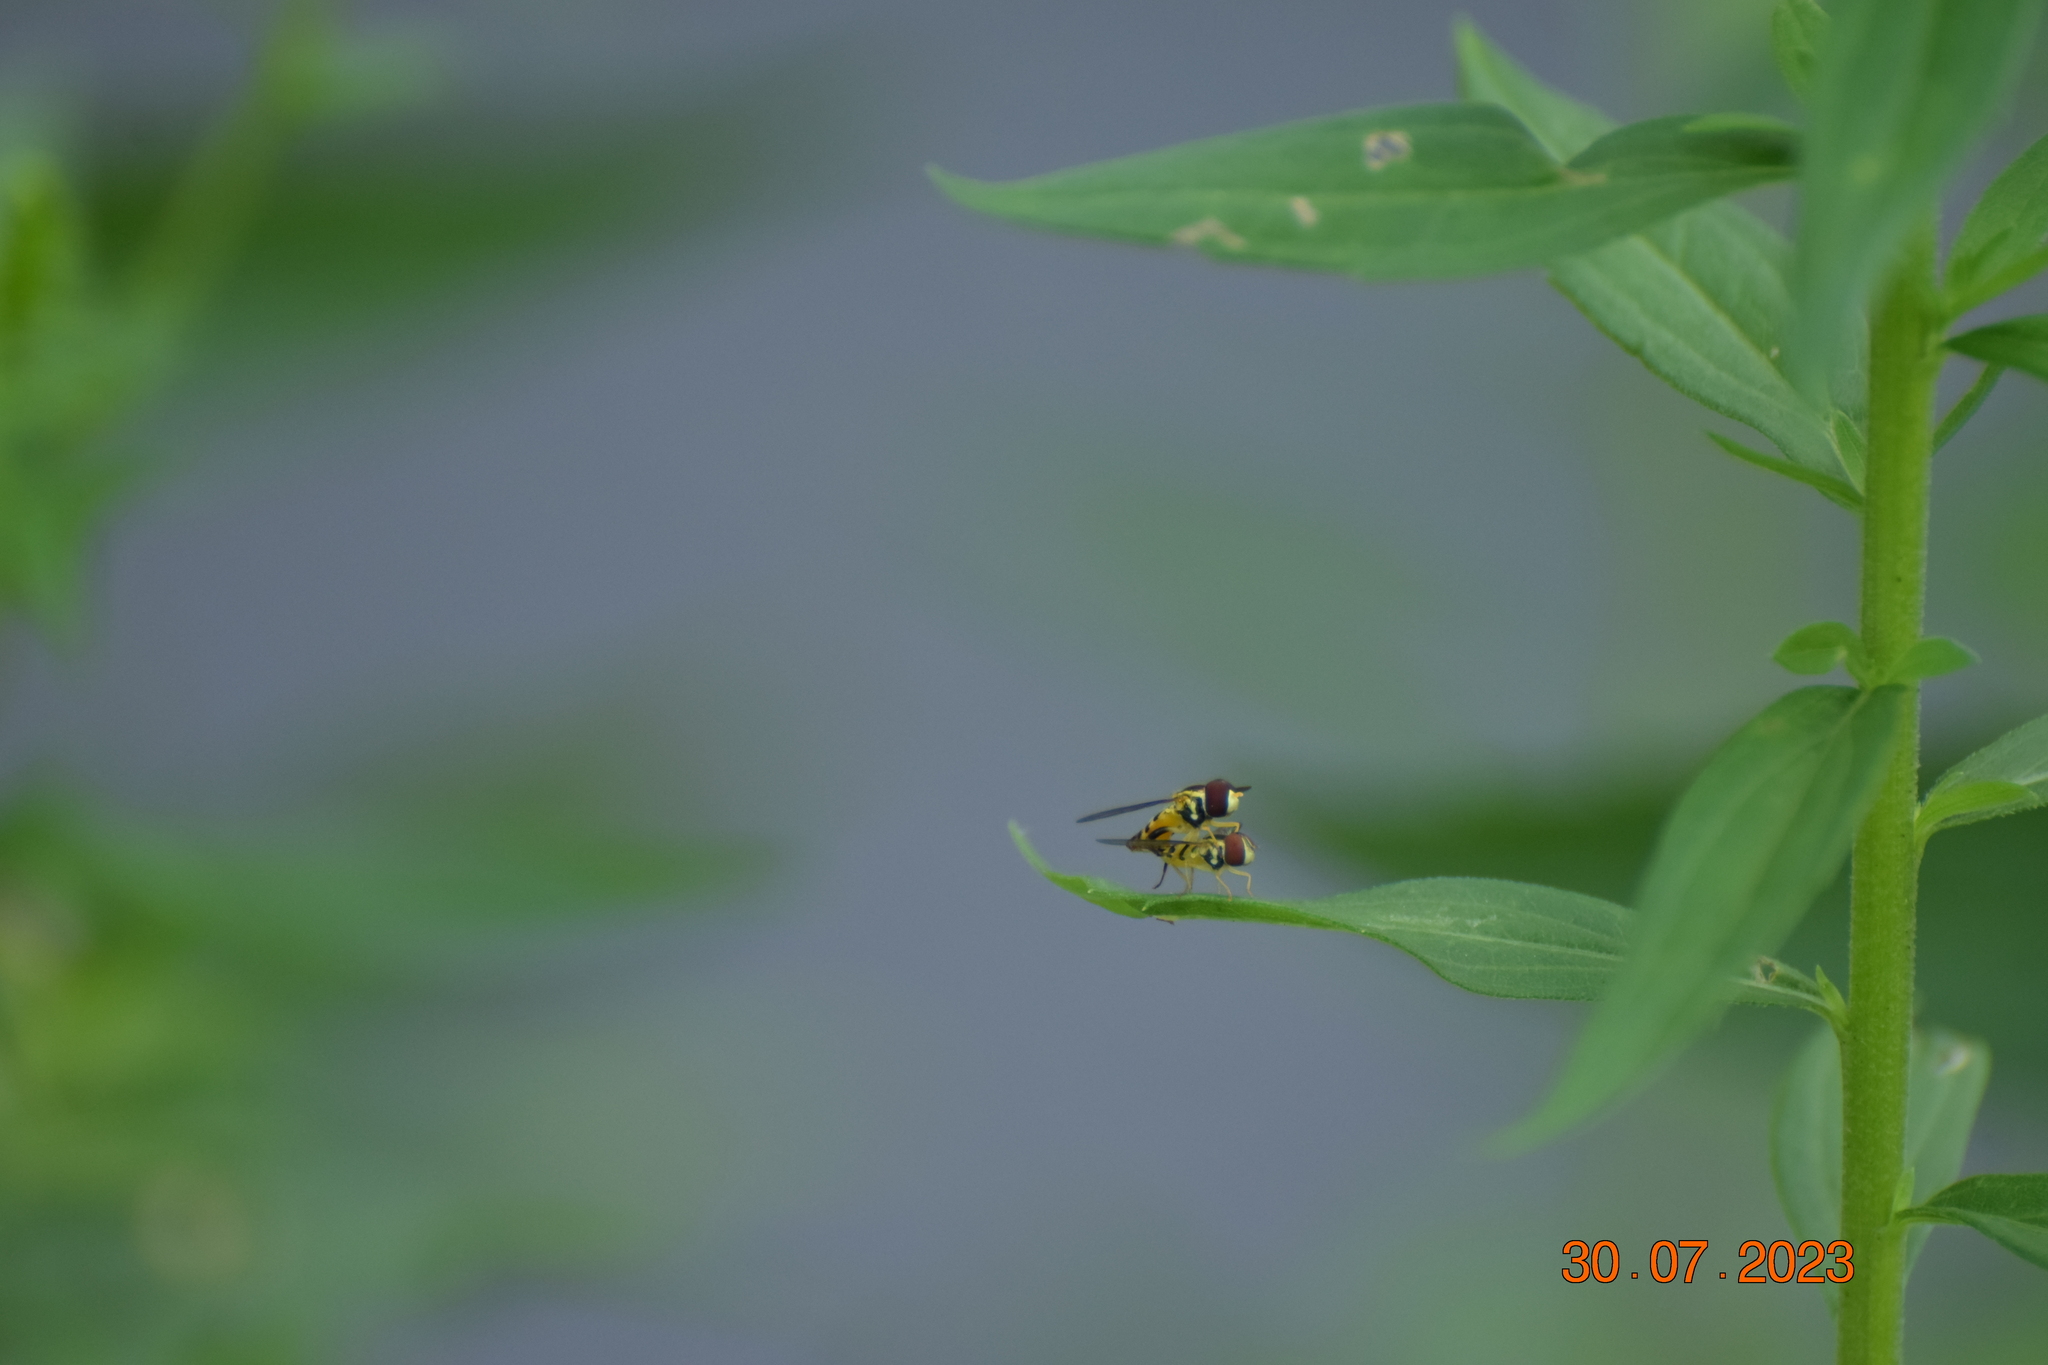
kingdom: Animalia
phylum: Arthropoda
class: Insecta
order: Diptera
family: Syrphidae
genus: Toxomerus
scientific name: Toxomerus geminatus
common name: Eastern calligrapher
